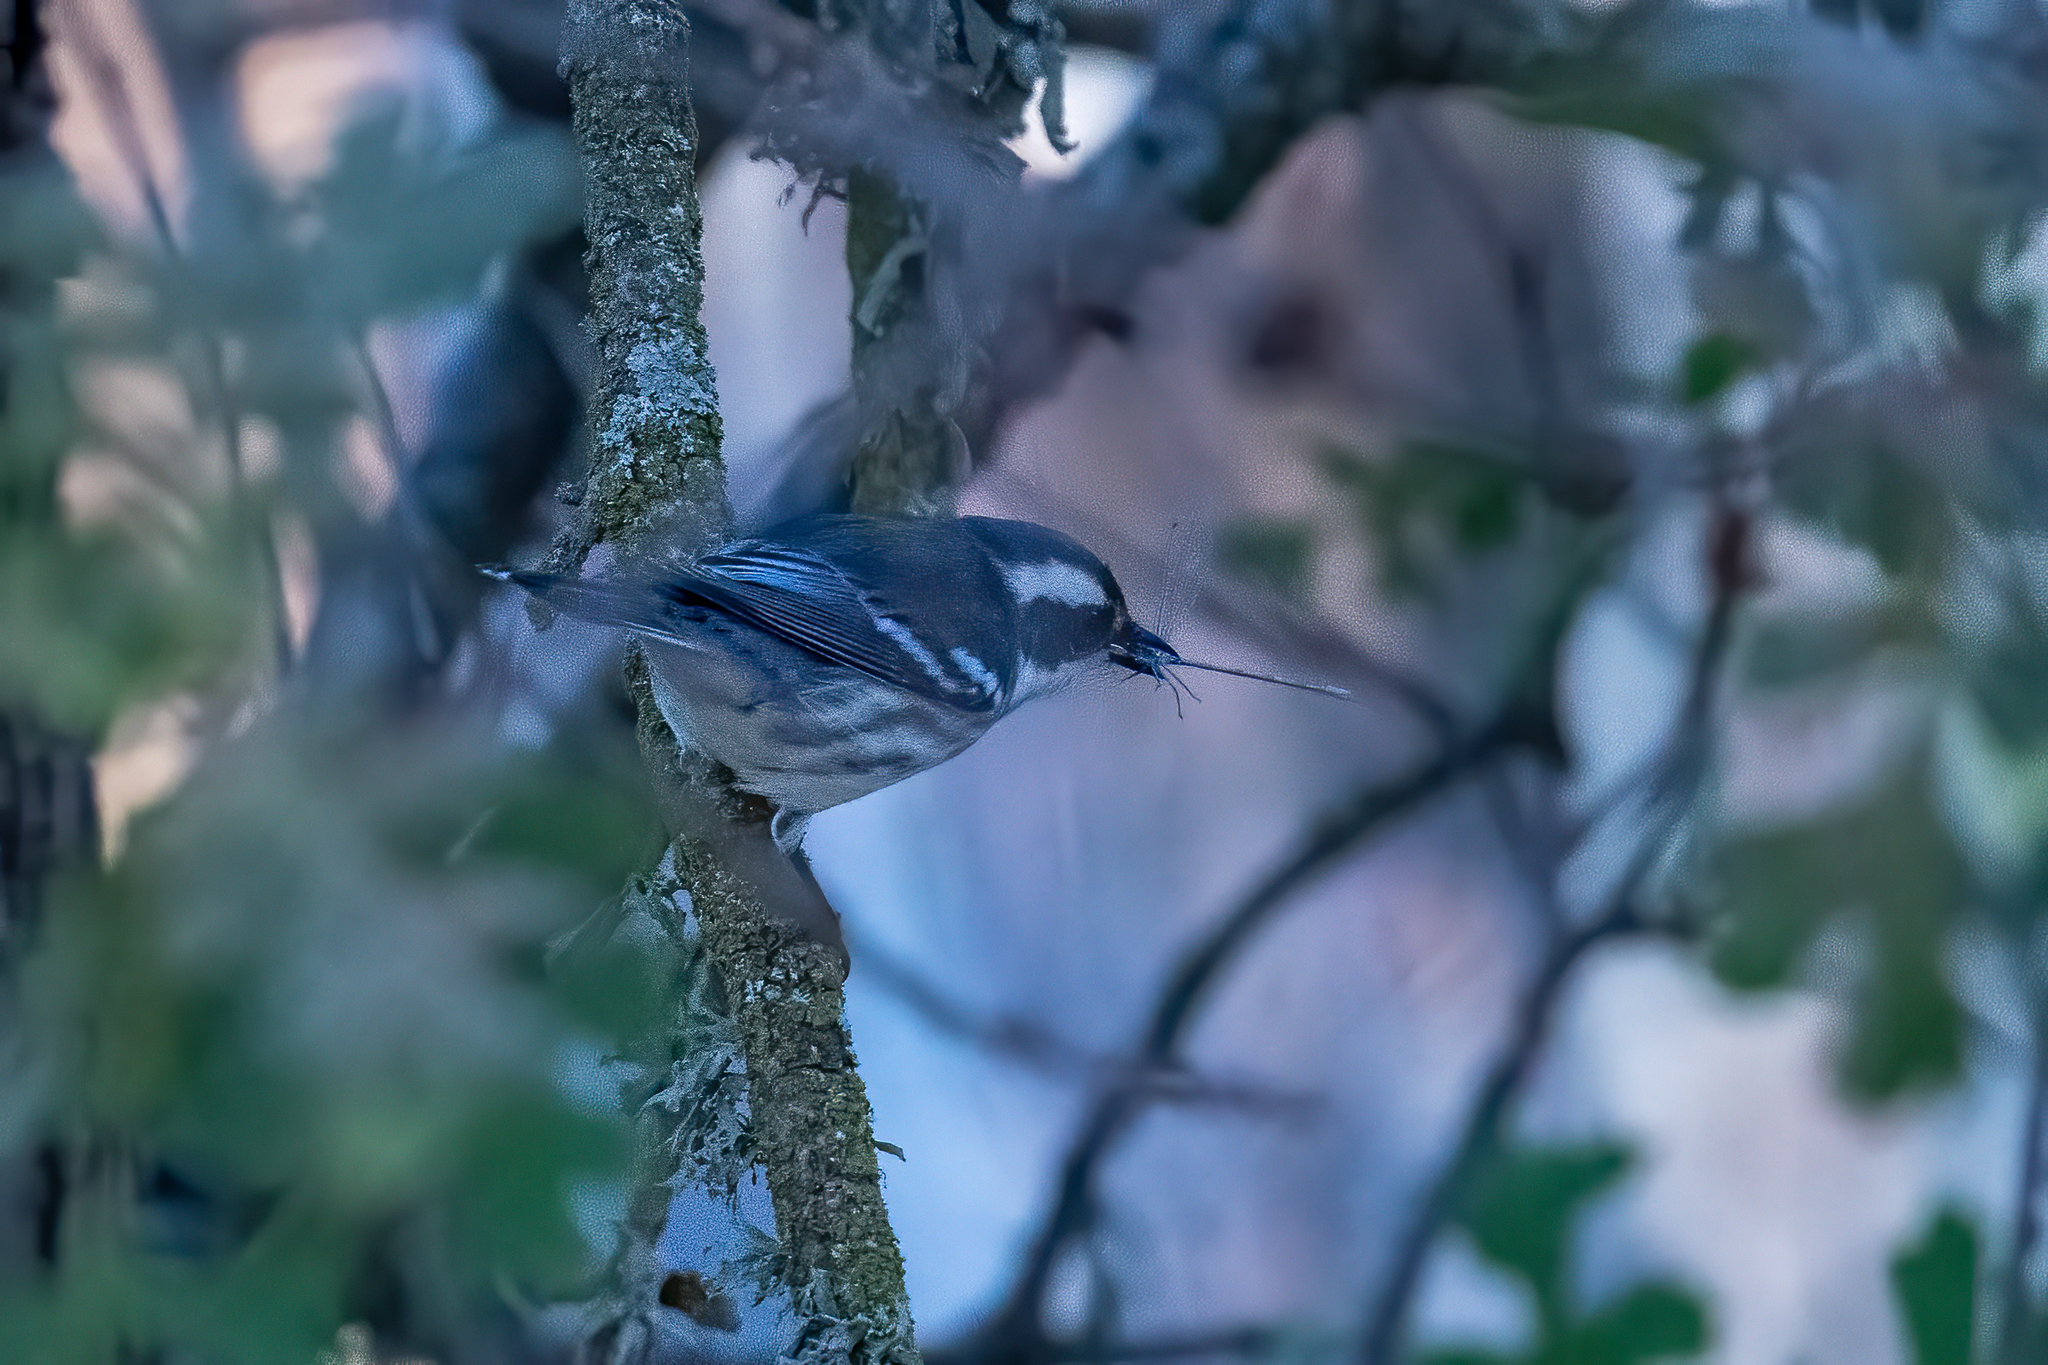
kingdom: Animalia
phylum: Chordata
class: Aves
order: Passeriformes
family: Parulidae
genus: Setophaga
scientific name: Setophaga nigrescens
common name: Black-throated gray warbler
